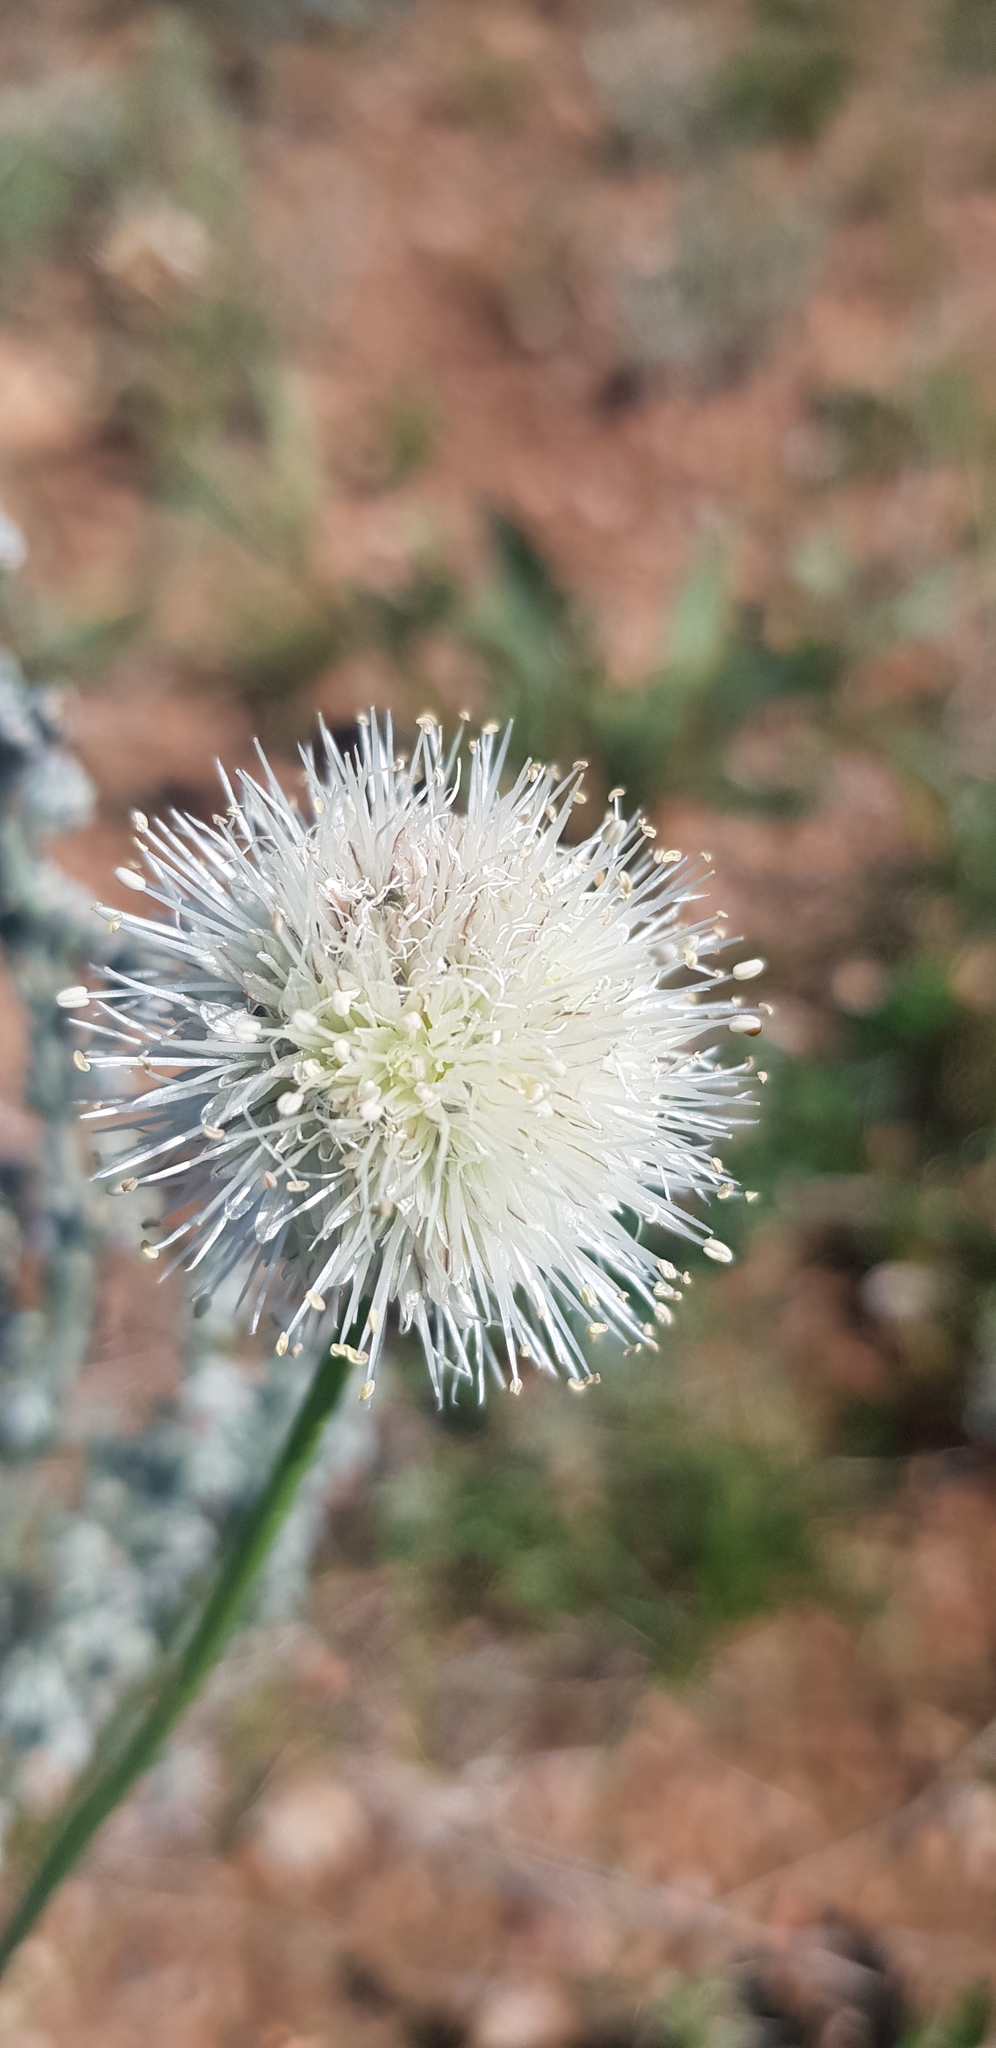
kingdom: Plantae
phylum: Tracheophyta
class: Liliopsida
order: Asparagales
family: Amaryllidaceae
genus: Allium
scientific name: Allium leucocephalum
